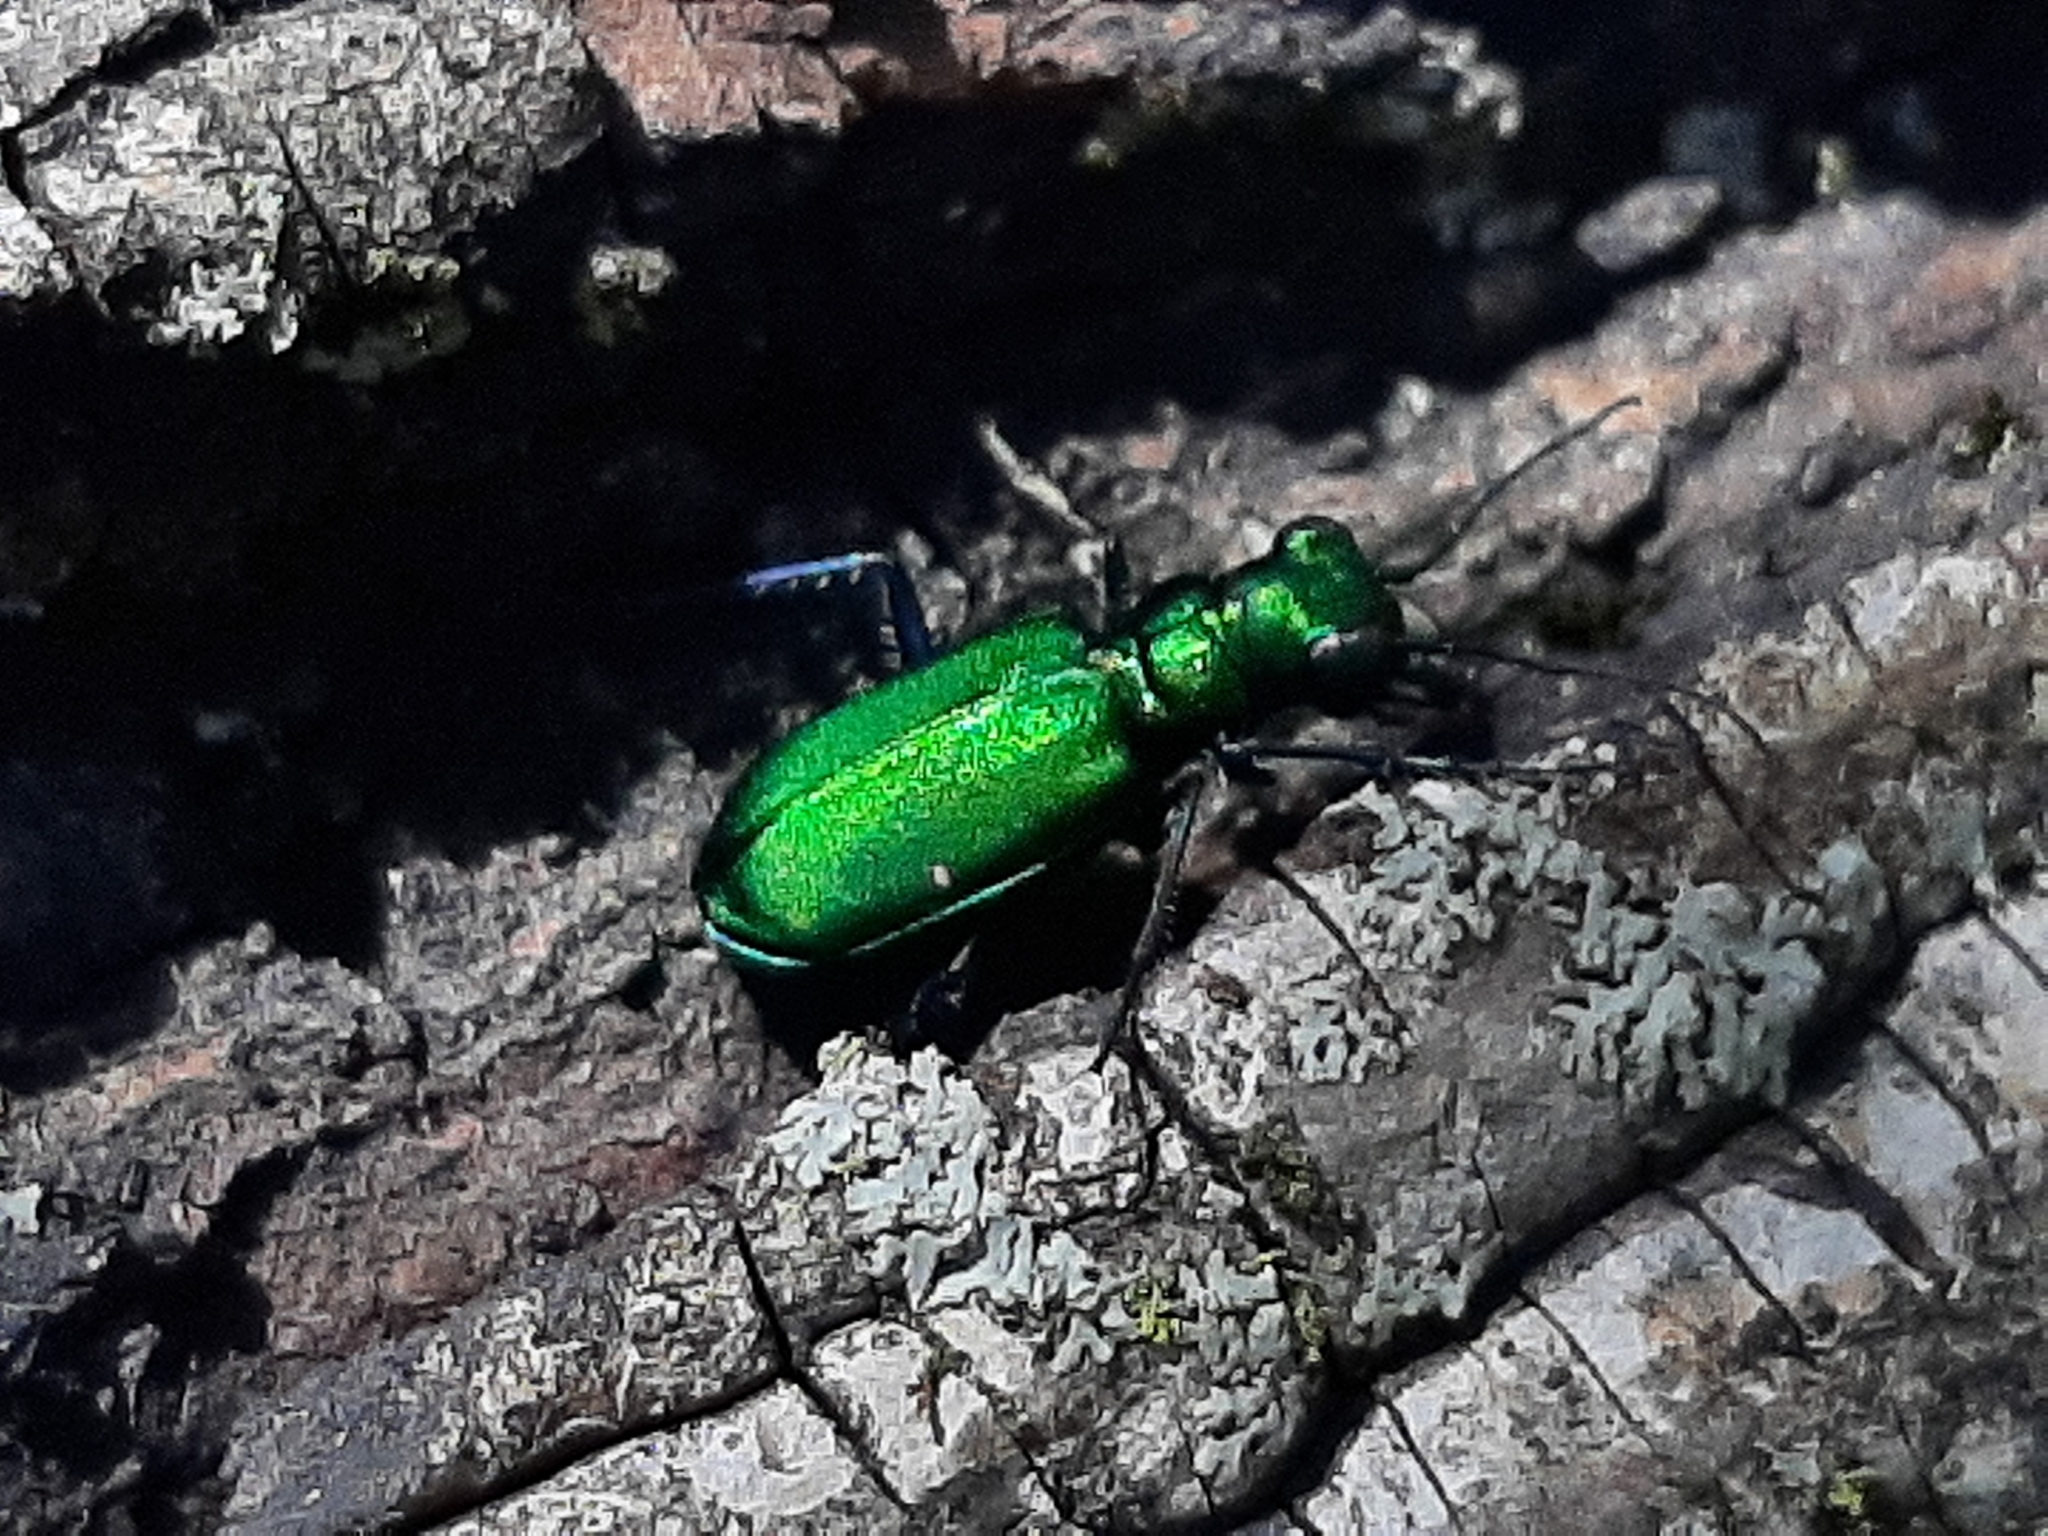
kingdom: Animalia
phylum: Arthropoda
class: Insecta
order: Coleoptera
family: Carabidae
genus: Cicindela
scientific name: Cicindela sexguttata
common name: Six-spotted tiger beetle
